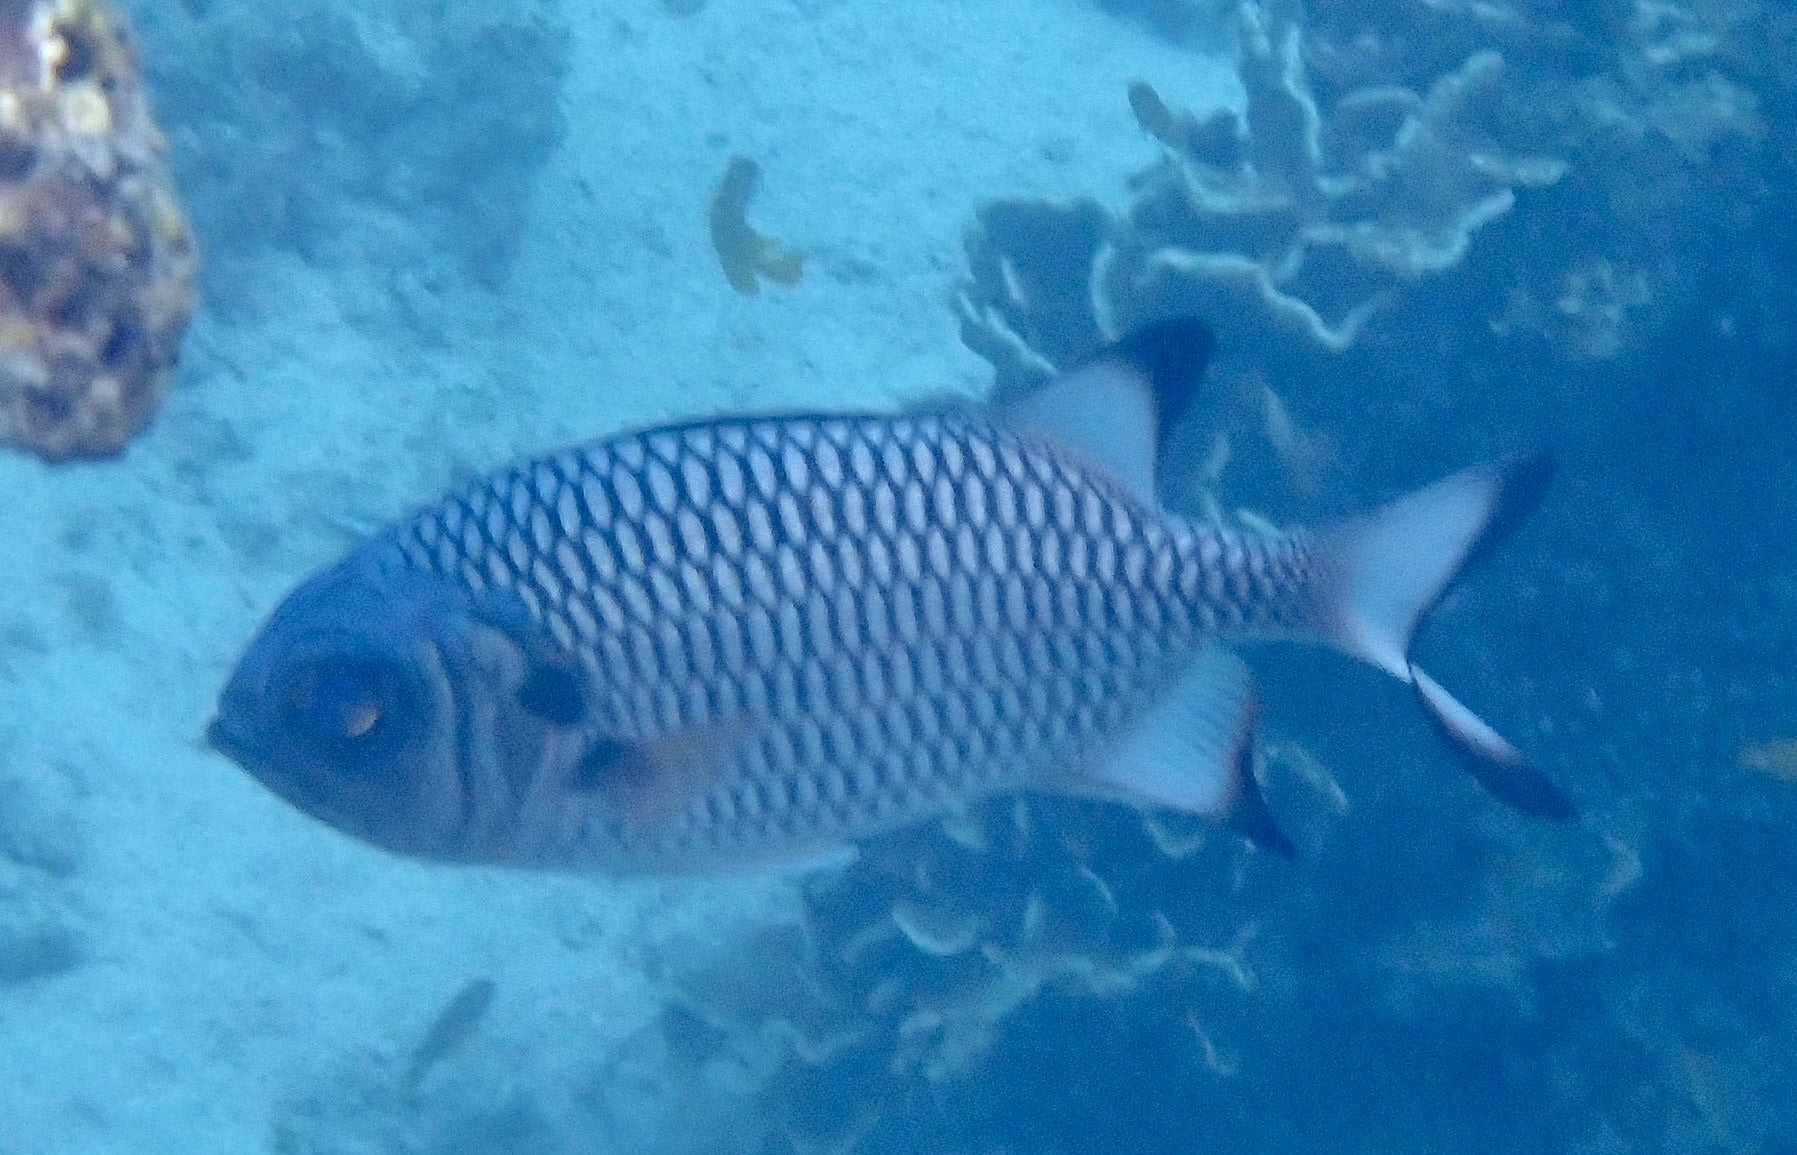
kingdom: Animalia
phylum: Chordata
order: Beryciformes
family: Holocentridae
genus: Myripristis
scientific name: Myripristis adusta
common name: Blackfin soldierfish
